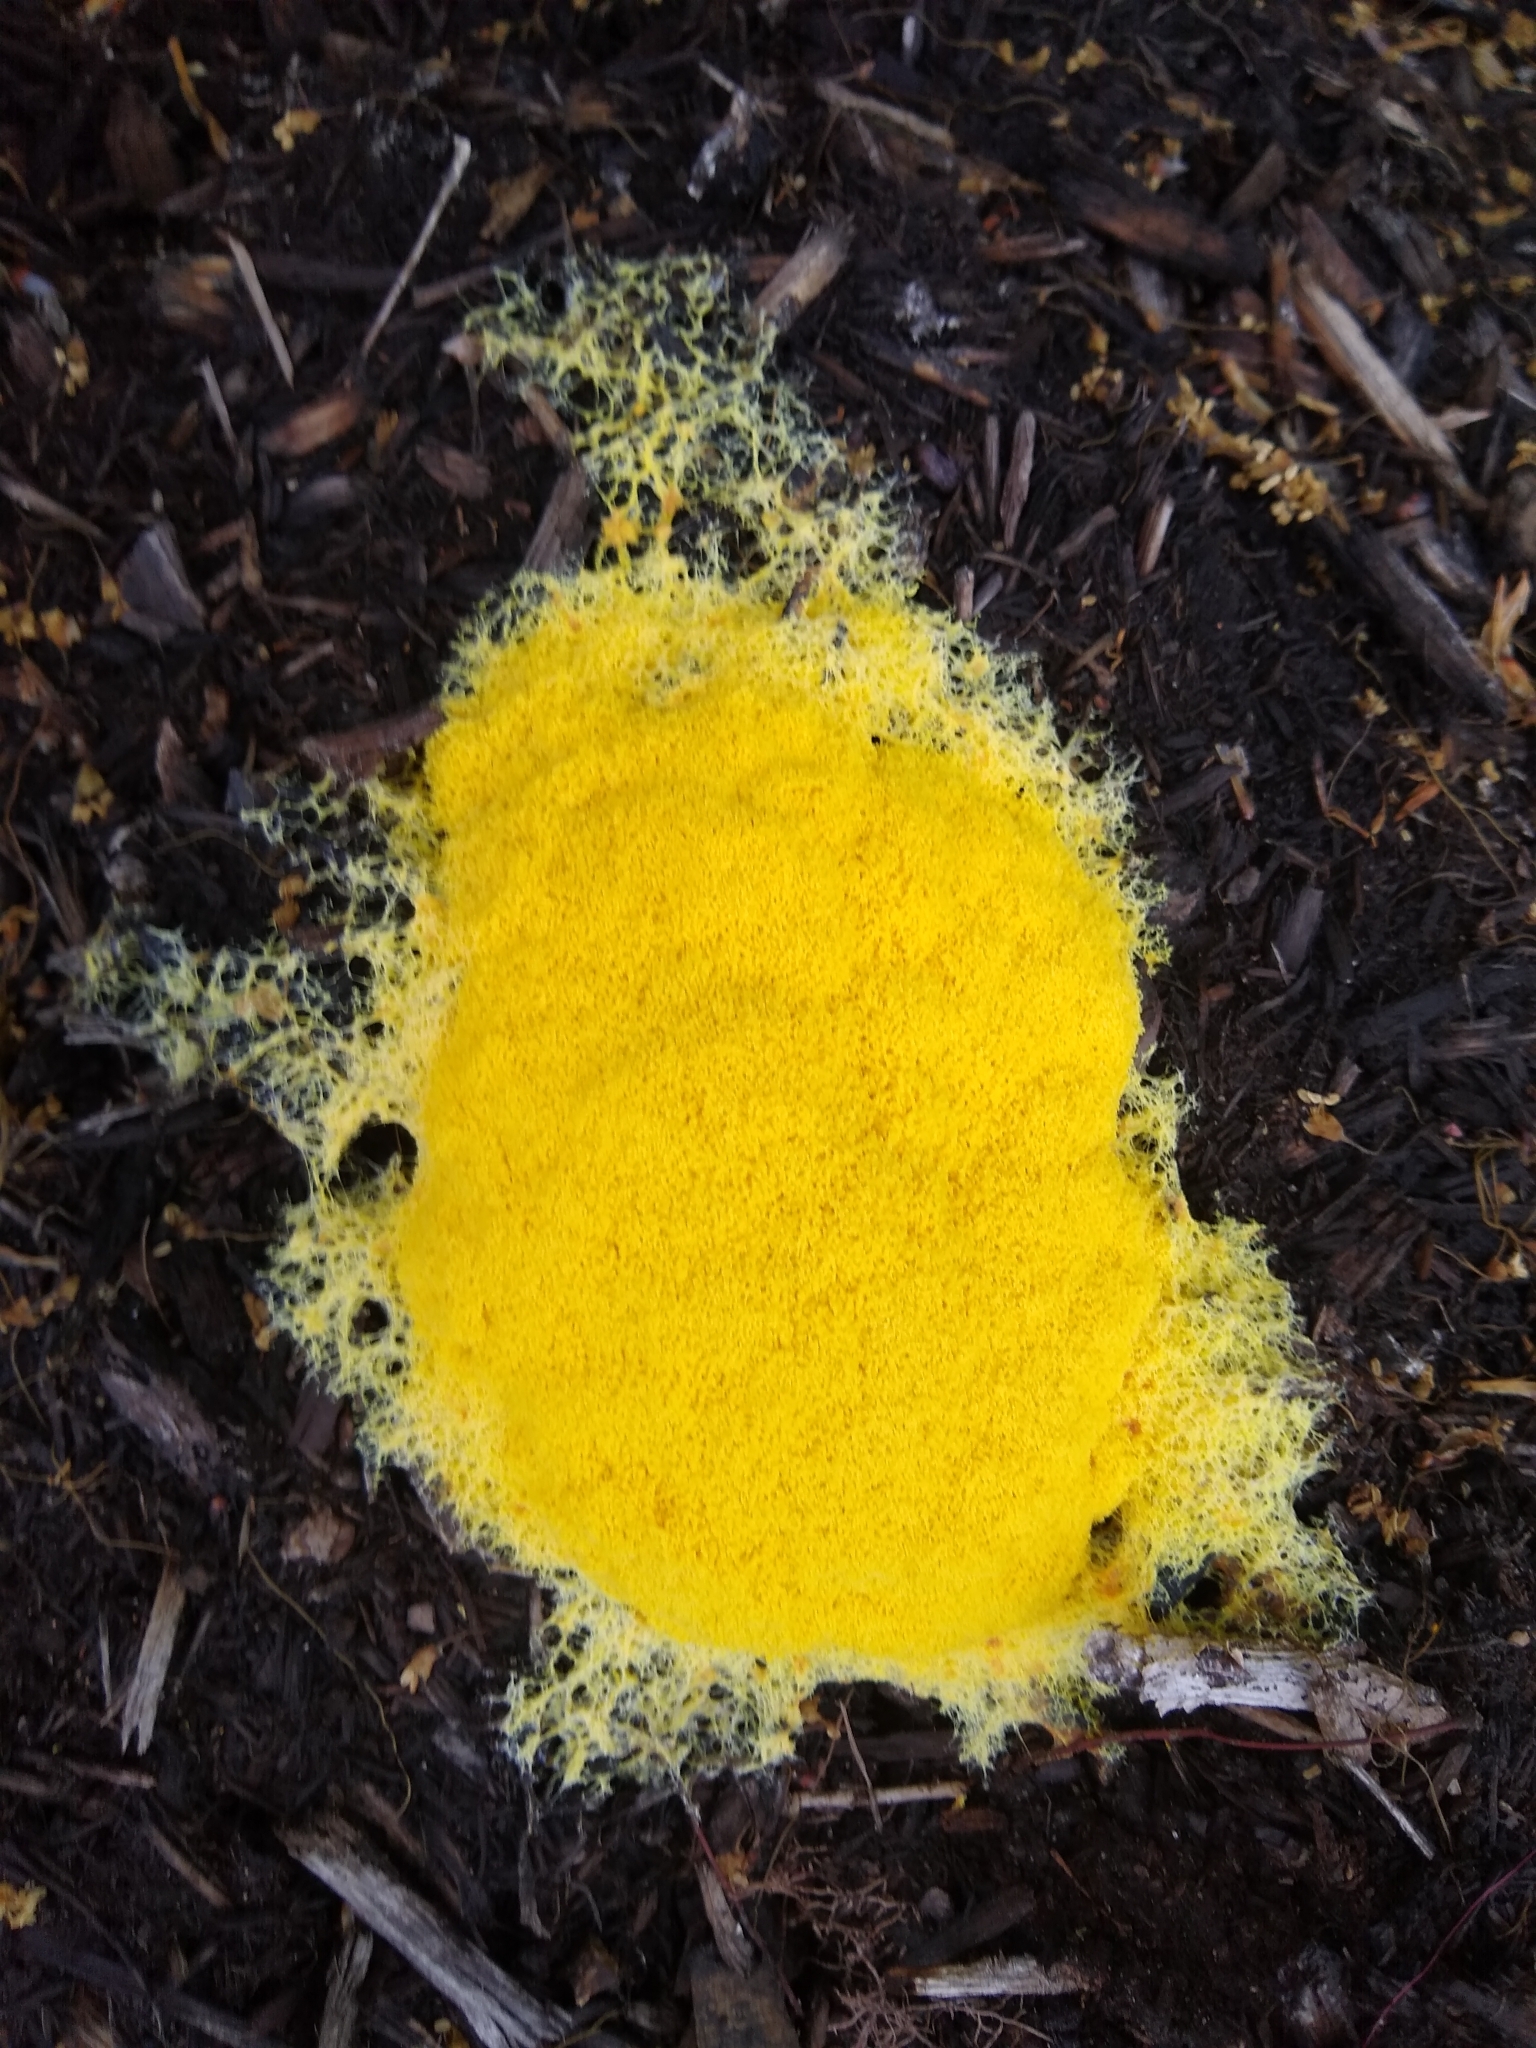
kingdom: Protozoa
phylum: Mycetozoa
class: Myxomycetes
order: Physarales
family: Physaraceae
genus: Fuligo
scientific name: Fuligo septica
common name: Dog vomit slime mold
